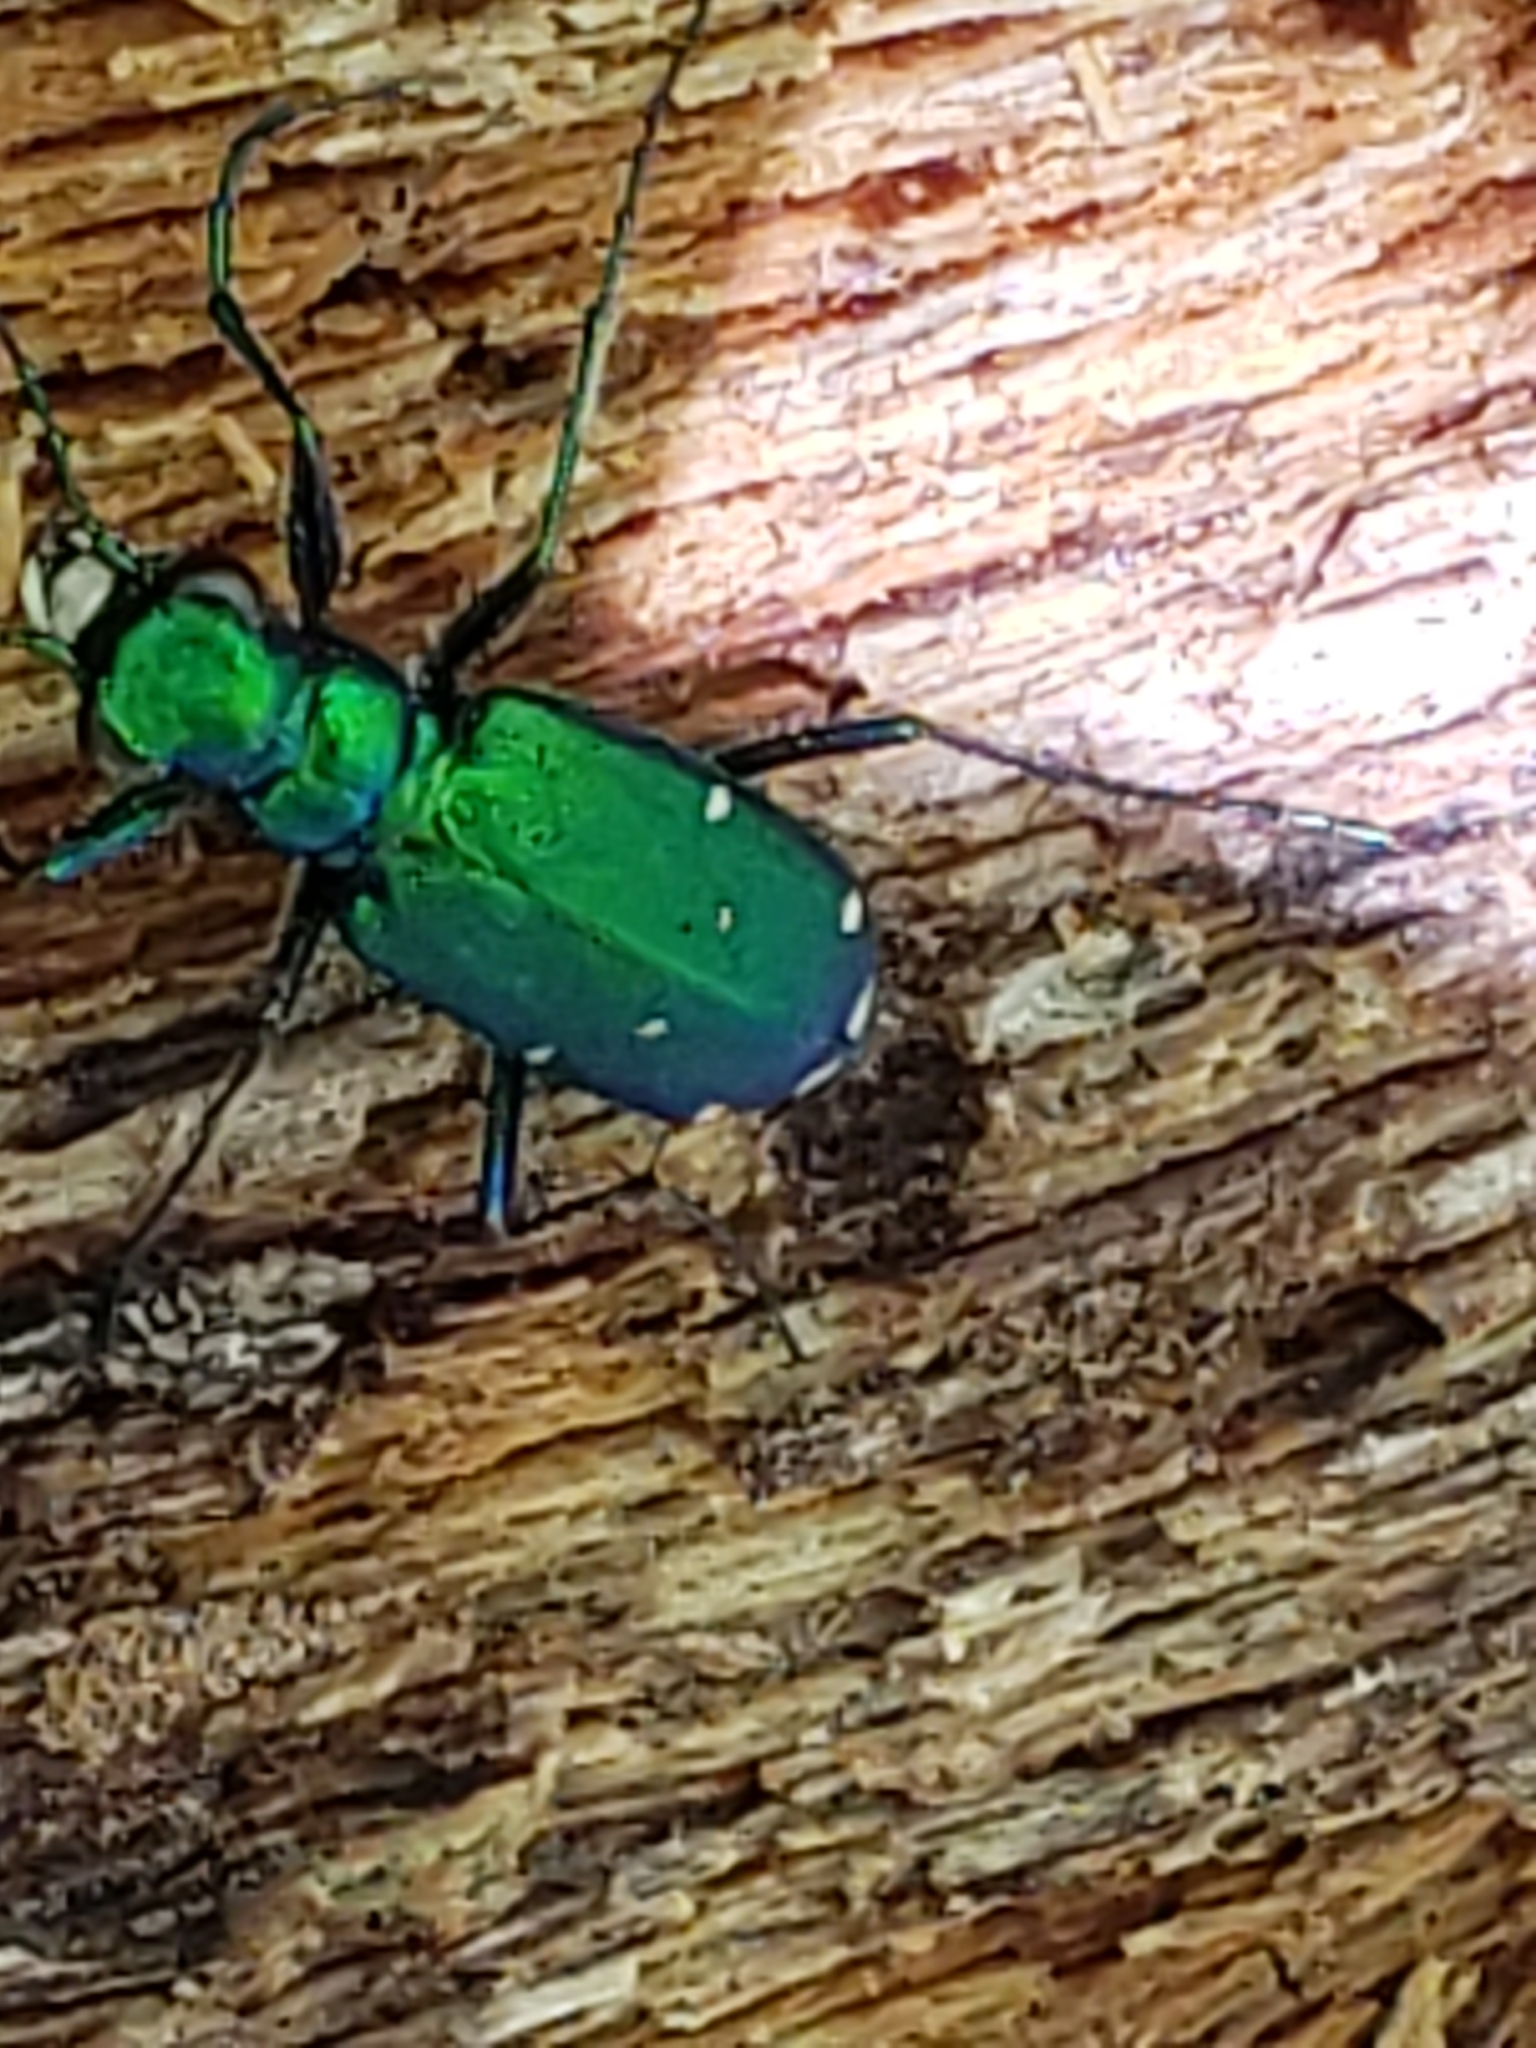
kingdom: Animalia
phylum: Arthropoda
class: Insecta
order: Coleoptera
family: Carabidae
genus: Cicindela
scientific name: Cicindela sexguttata
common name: Six-spotted tiger beetle
